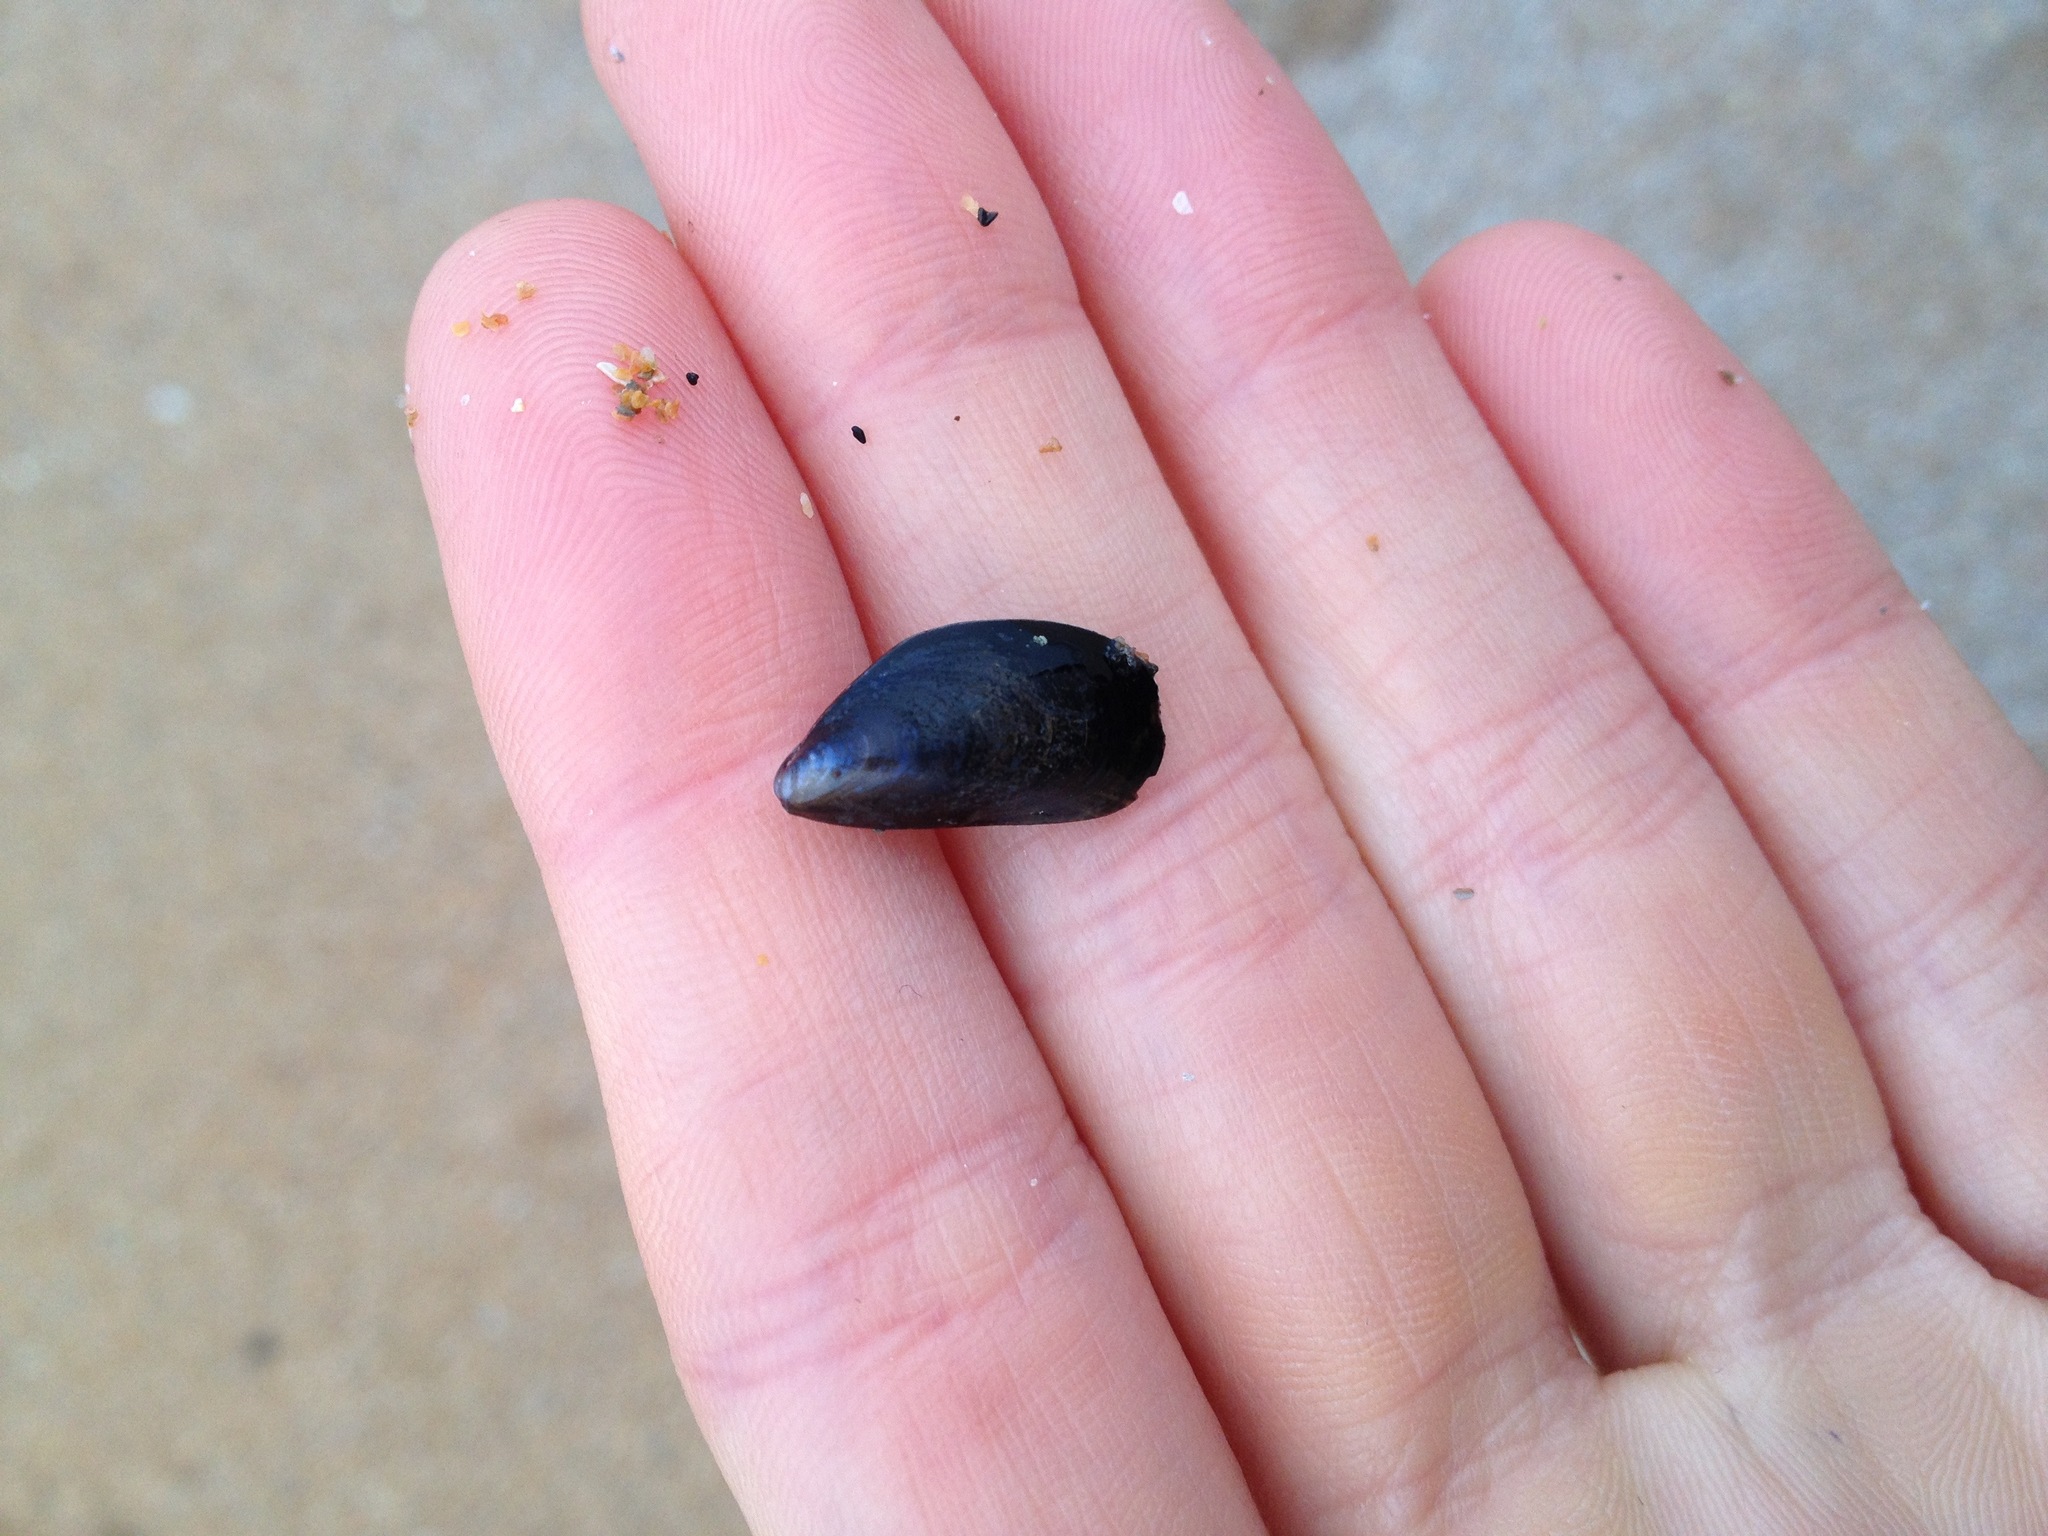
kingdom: Animalia
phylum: Mollusca
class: Bivalvia
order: Mytilida
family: Mytilidae
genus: Mytilus
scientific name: Mytilus edulis
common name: Blue mussel
